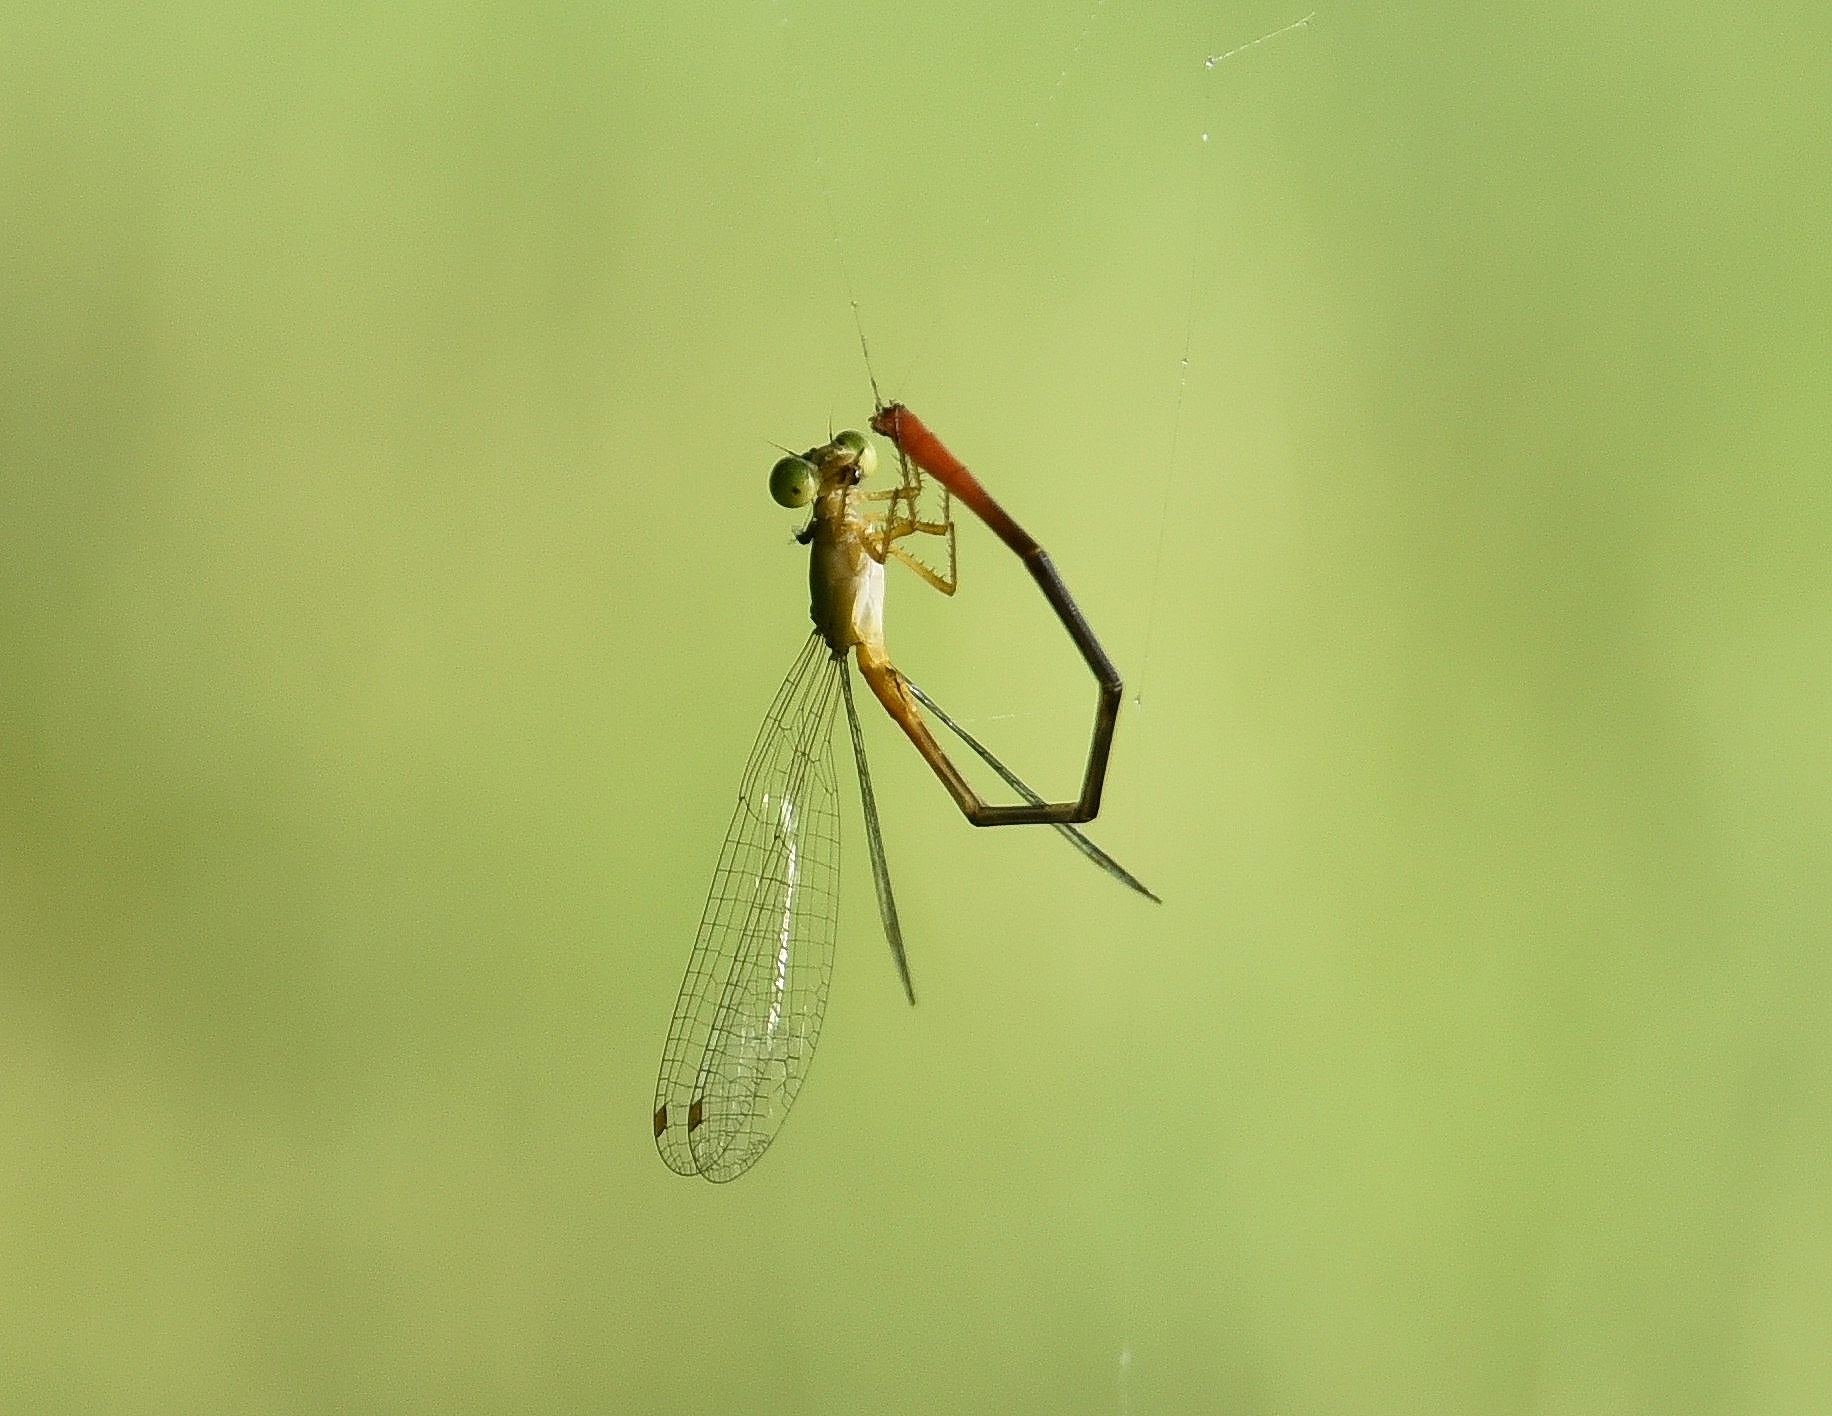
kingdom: Animalia
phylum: Arthropoda
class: Insecta
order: Odonata
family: Coenagrionidae
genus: Ceriagrion
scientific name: Ceriagrion cerinorubellum
